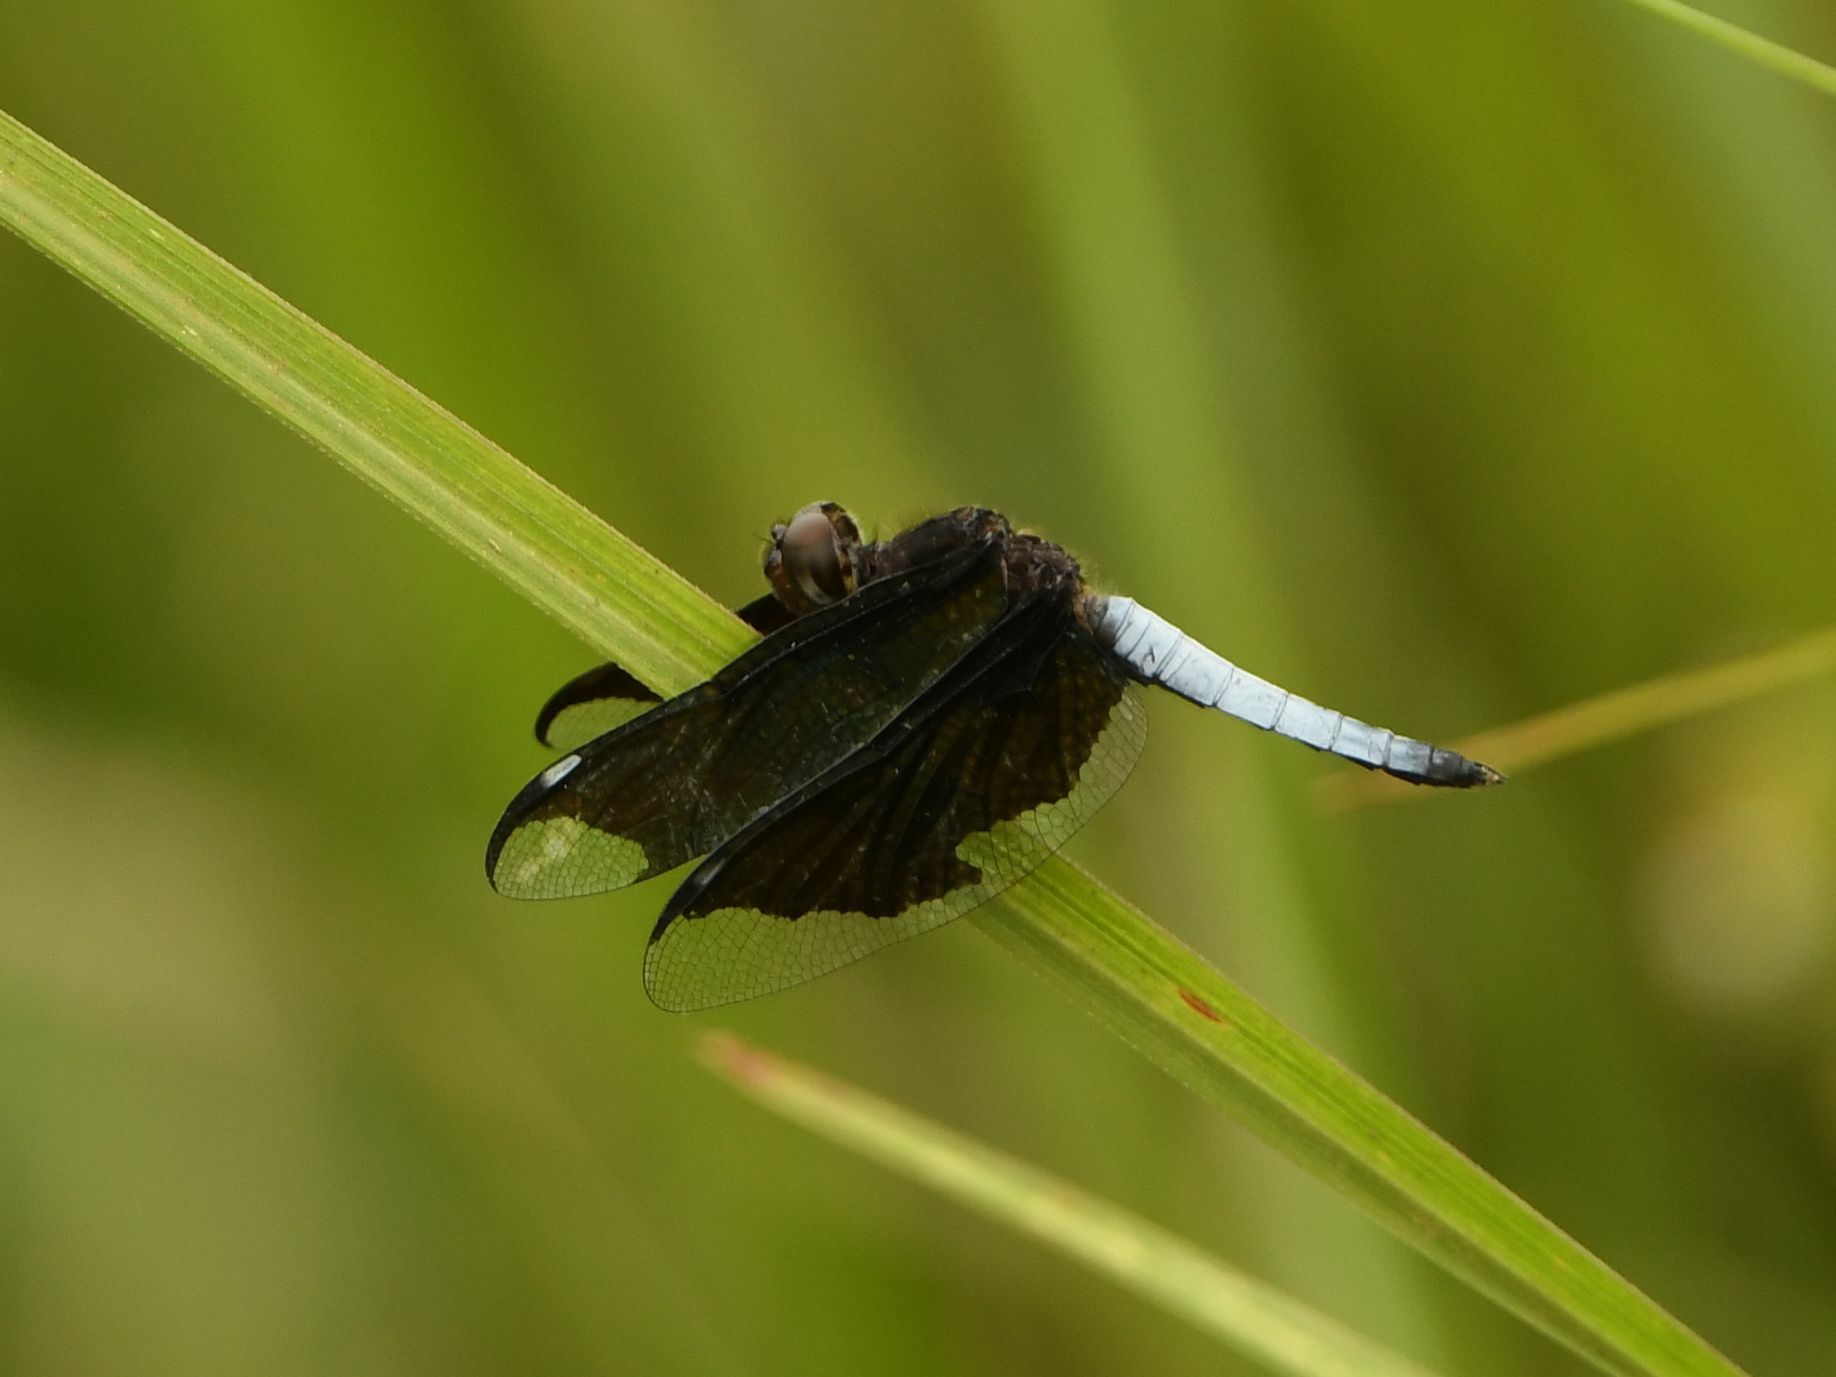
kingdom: Animalia
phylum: Arthropoda
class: Insecta
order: Odonata
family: Libellulidae
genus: Palpopleura
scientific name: Palpopleura lucia
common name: Lucia widow
